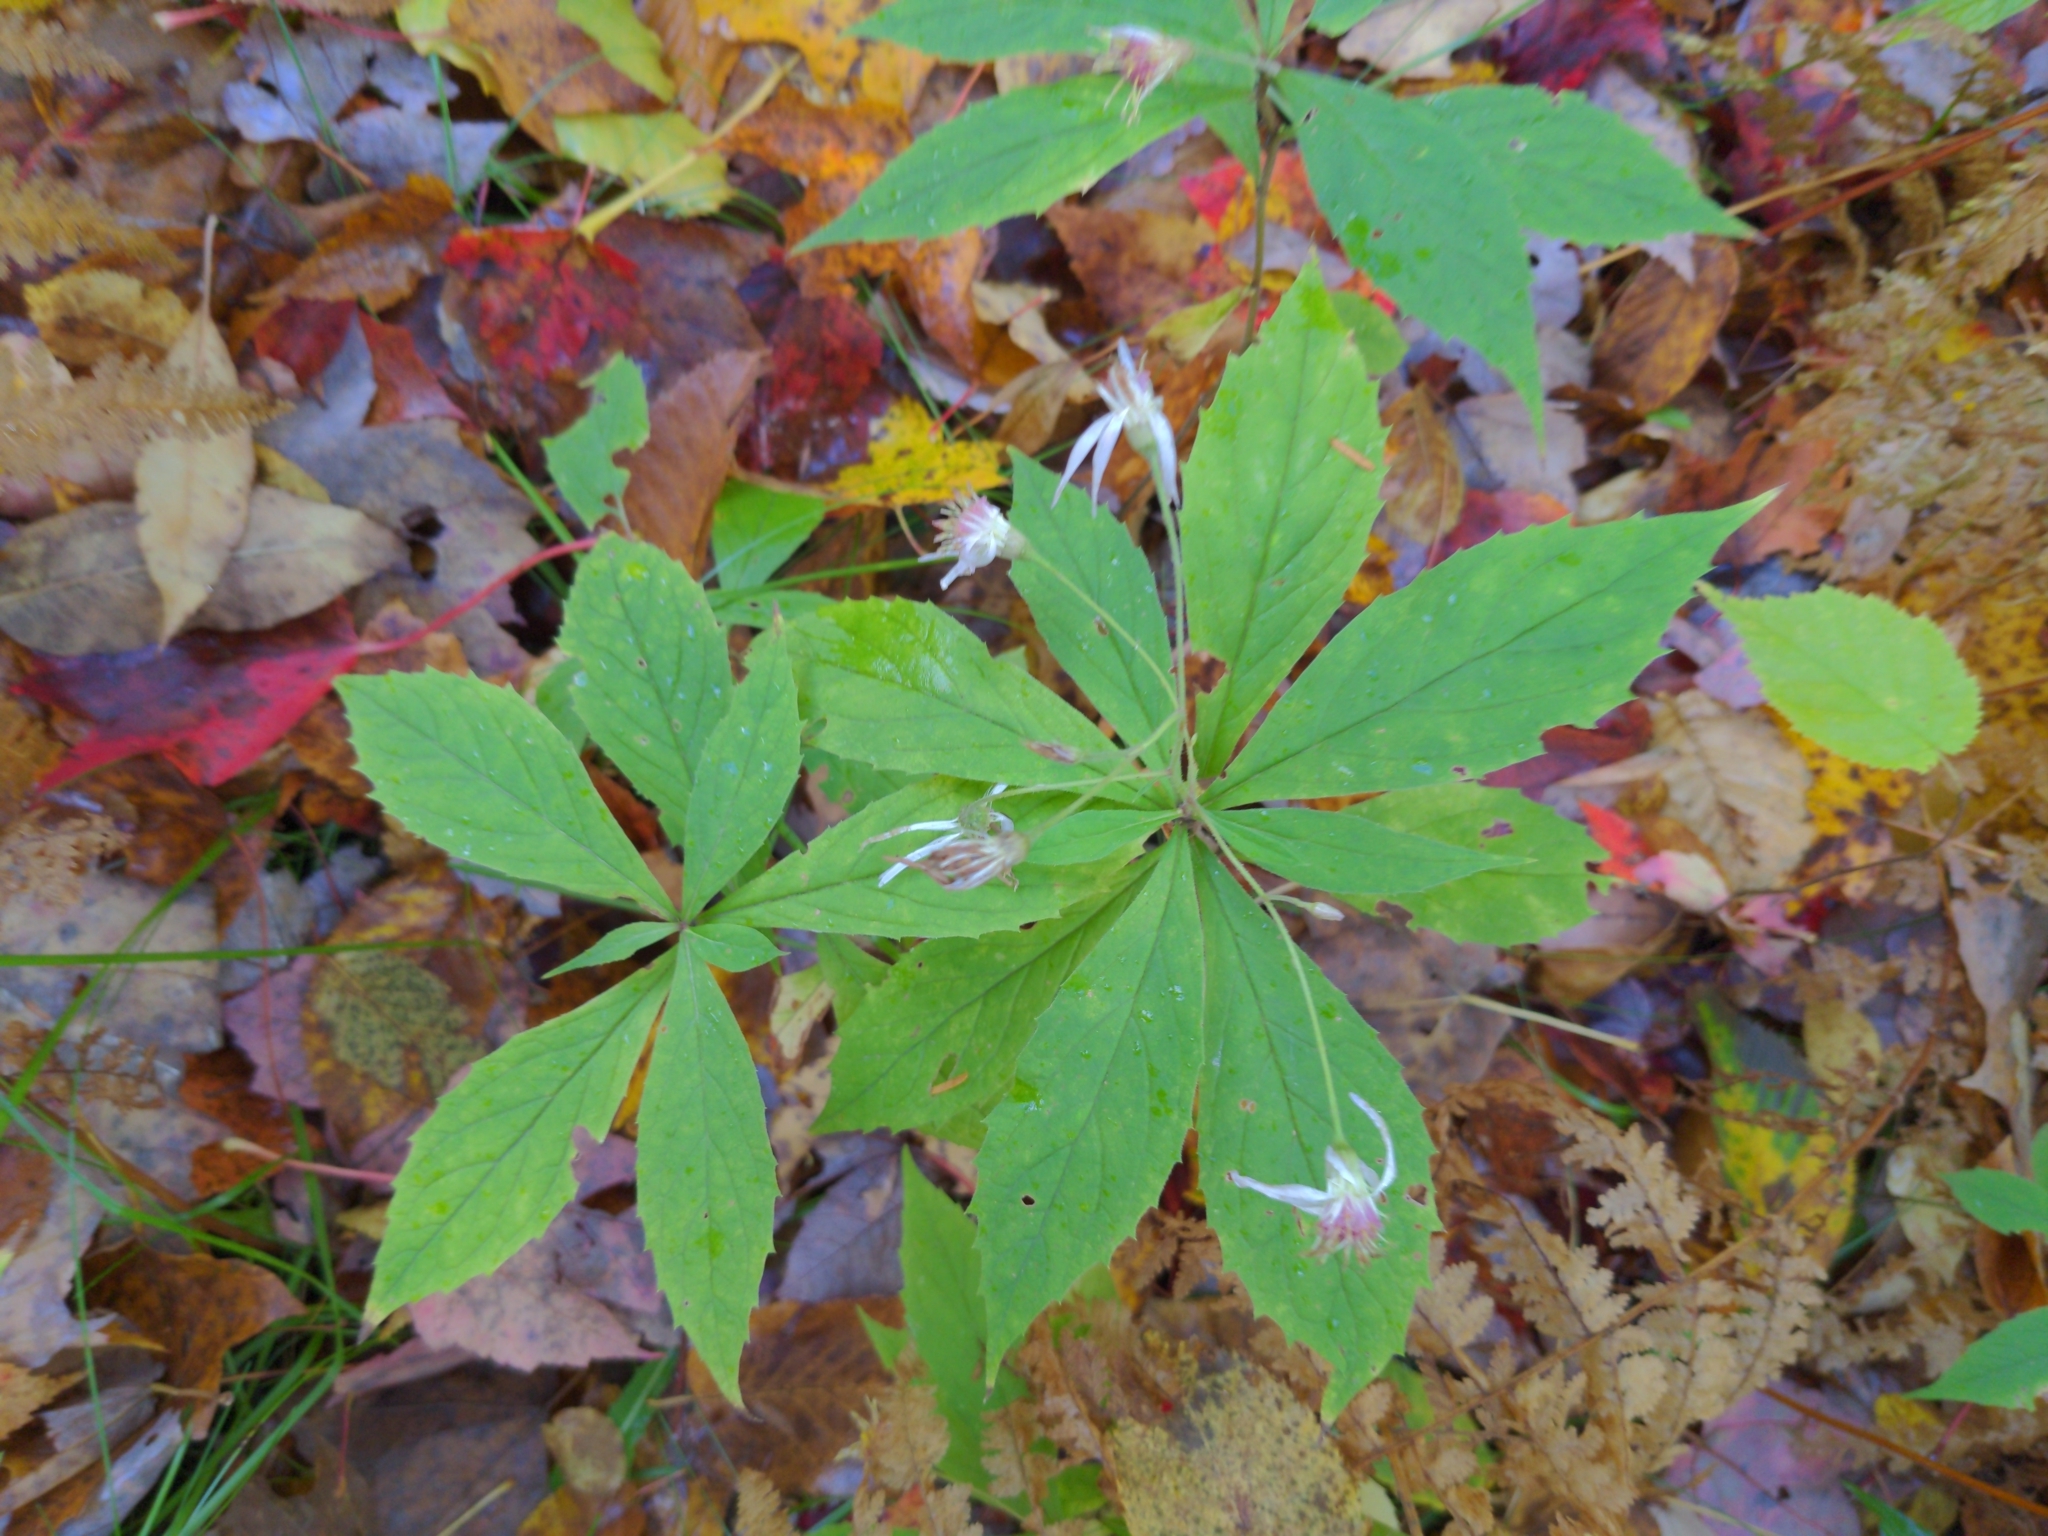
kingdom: Plantae
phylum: Tracheophyta
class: Magnoliopsida
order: Asterales
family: Asteraceae
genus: Oclemena
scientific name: Oclemena acuminata
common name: Mountain aster
